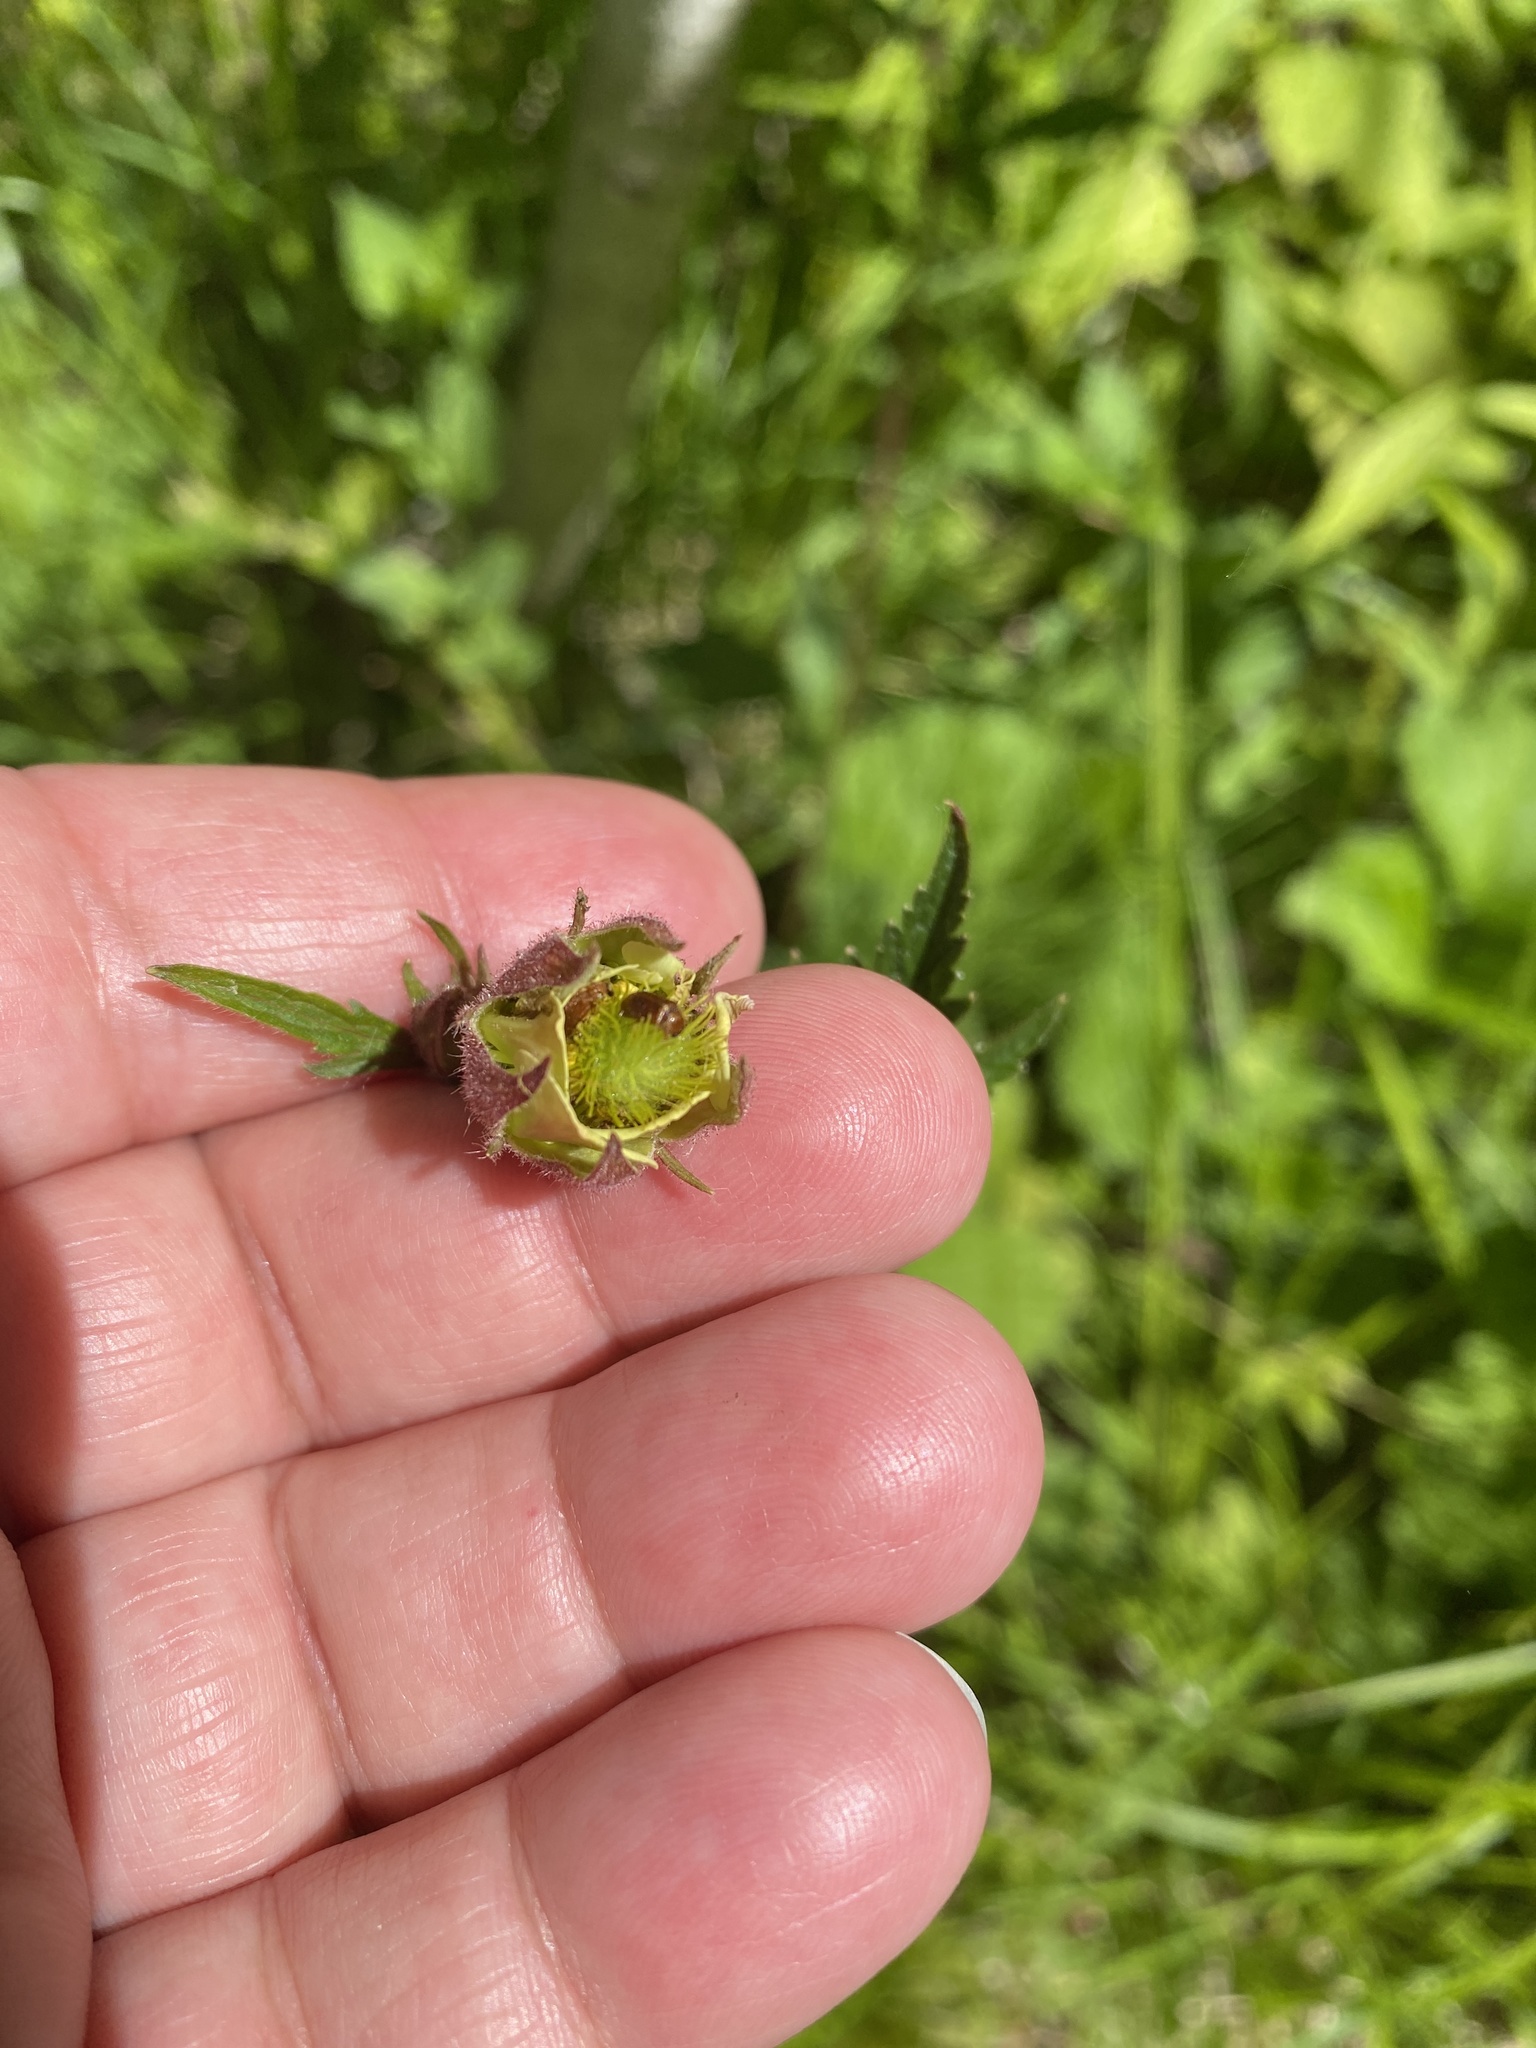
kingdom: Plantae
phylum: Tracheophyta
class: Magnoliopsida
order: Rosales
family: Rosaceae
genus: Geum
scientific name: Geum rivale
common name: Water avens
